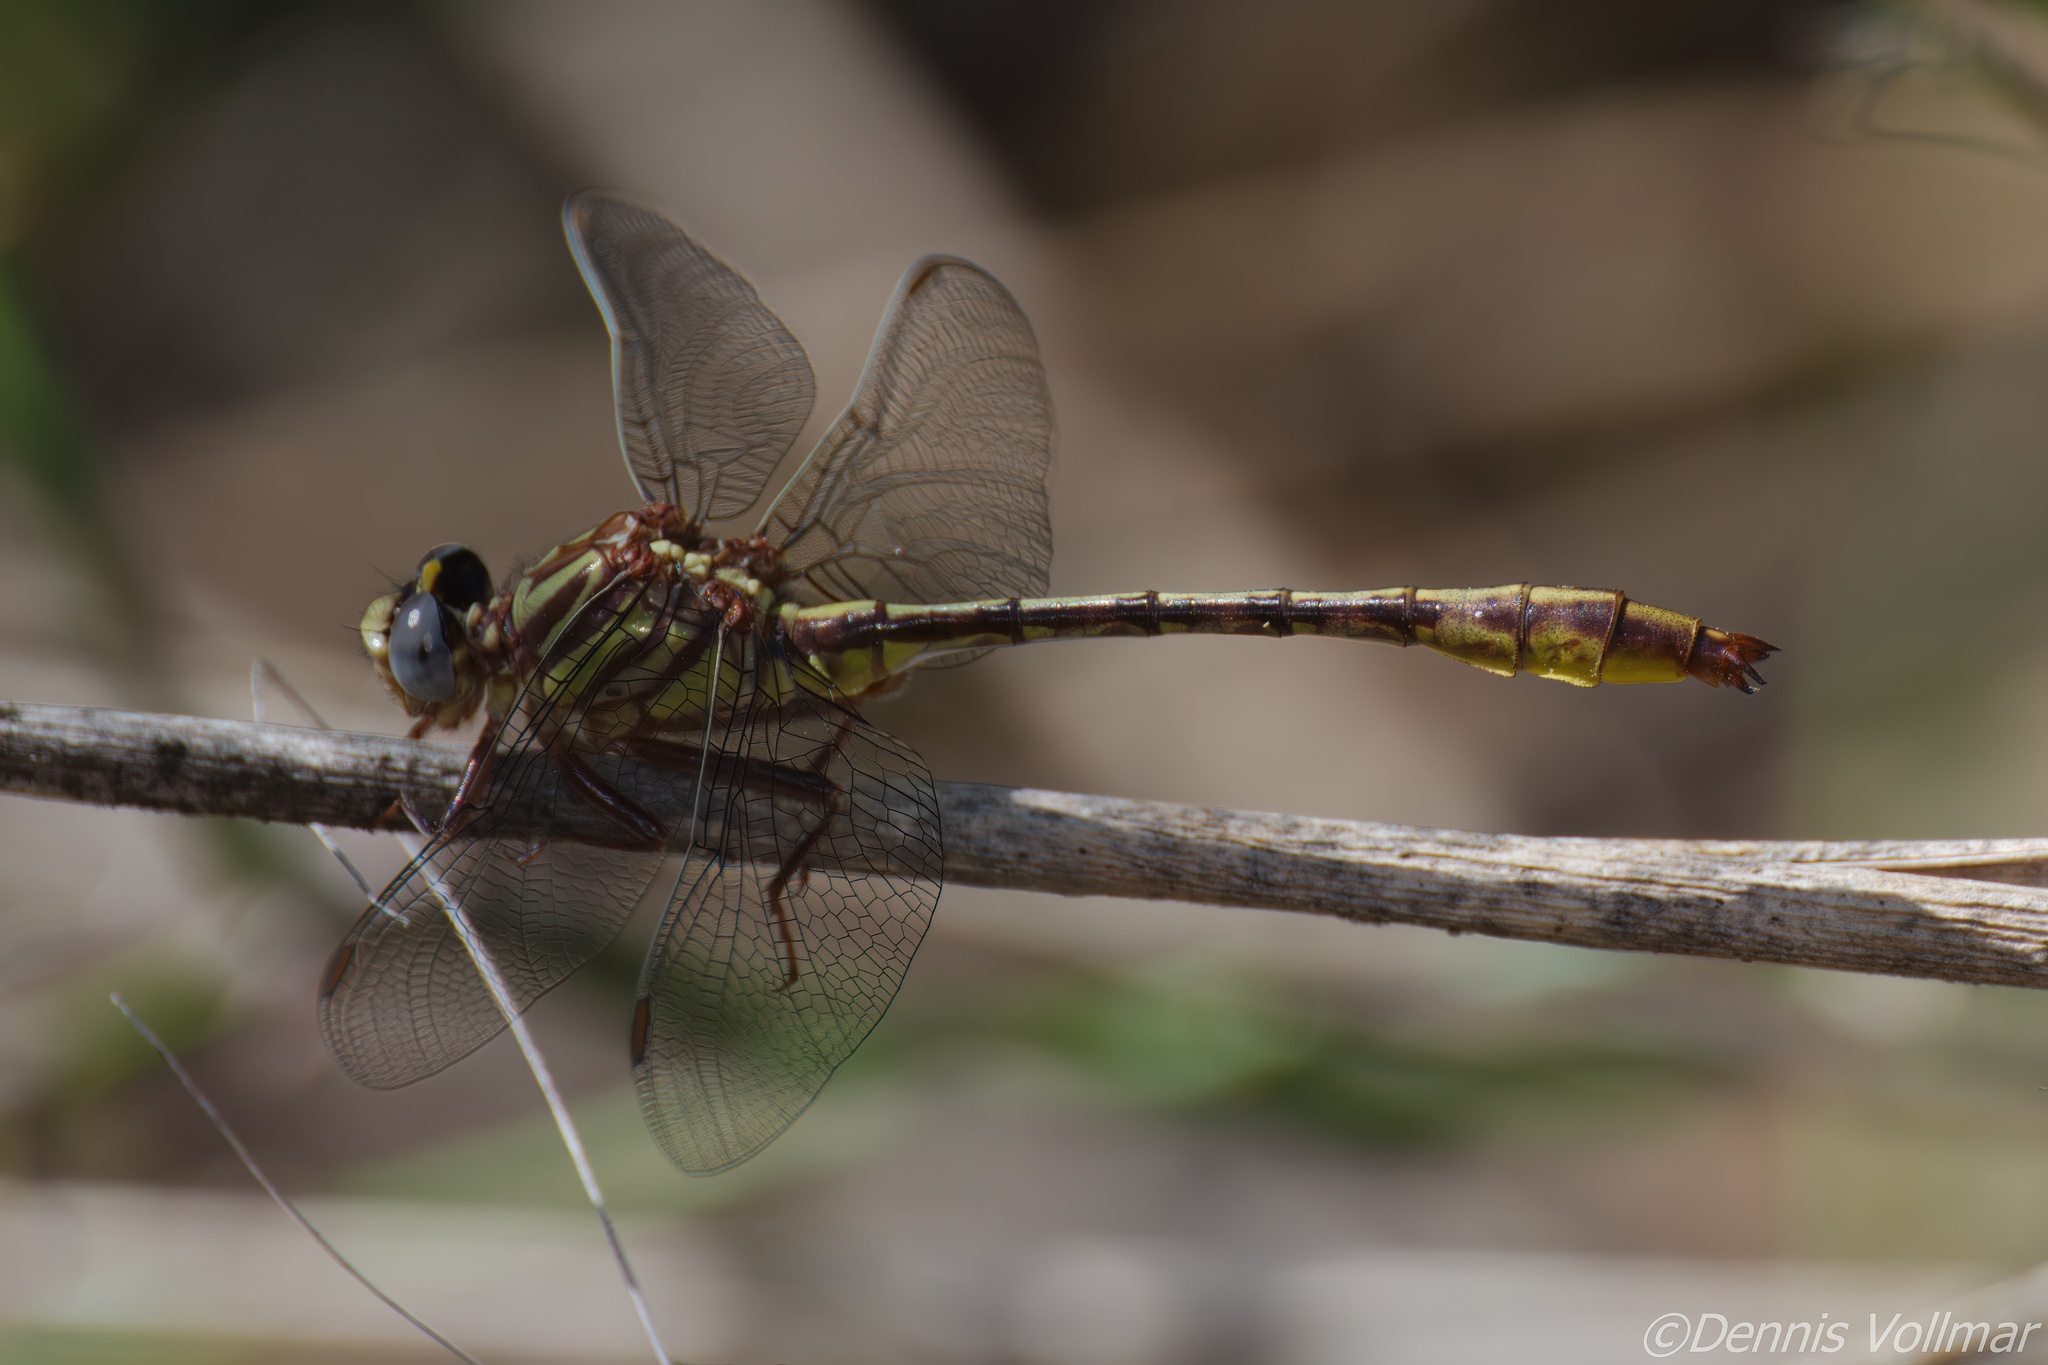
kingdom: Animalia
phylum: Arthropoda
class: Insecta
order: Odonata
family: Gomphidae
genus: Phanogomphus
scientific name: Phanogomphus minutus
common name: Cypress clubtail
